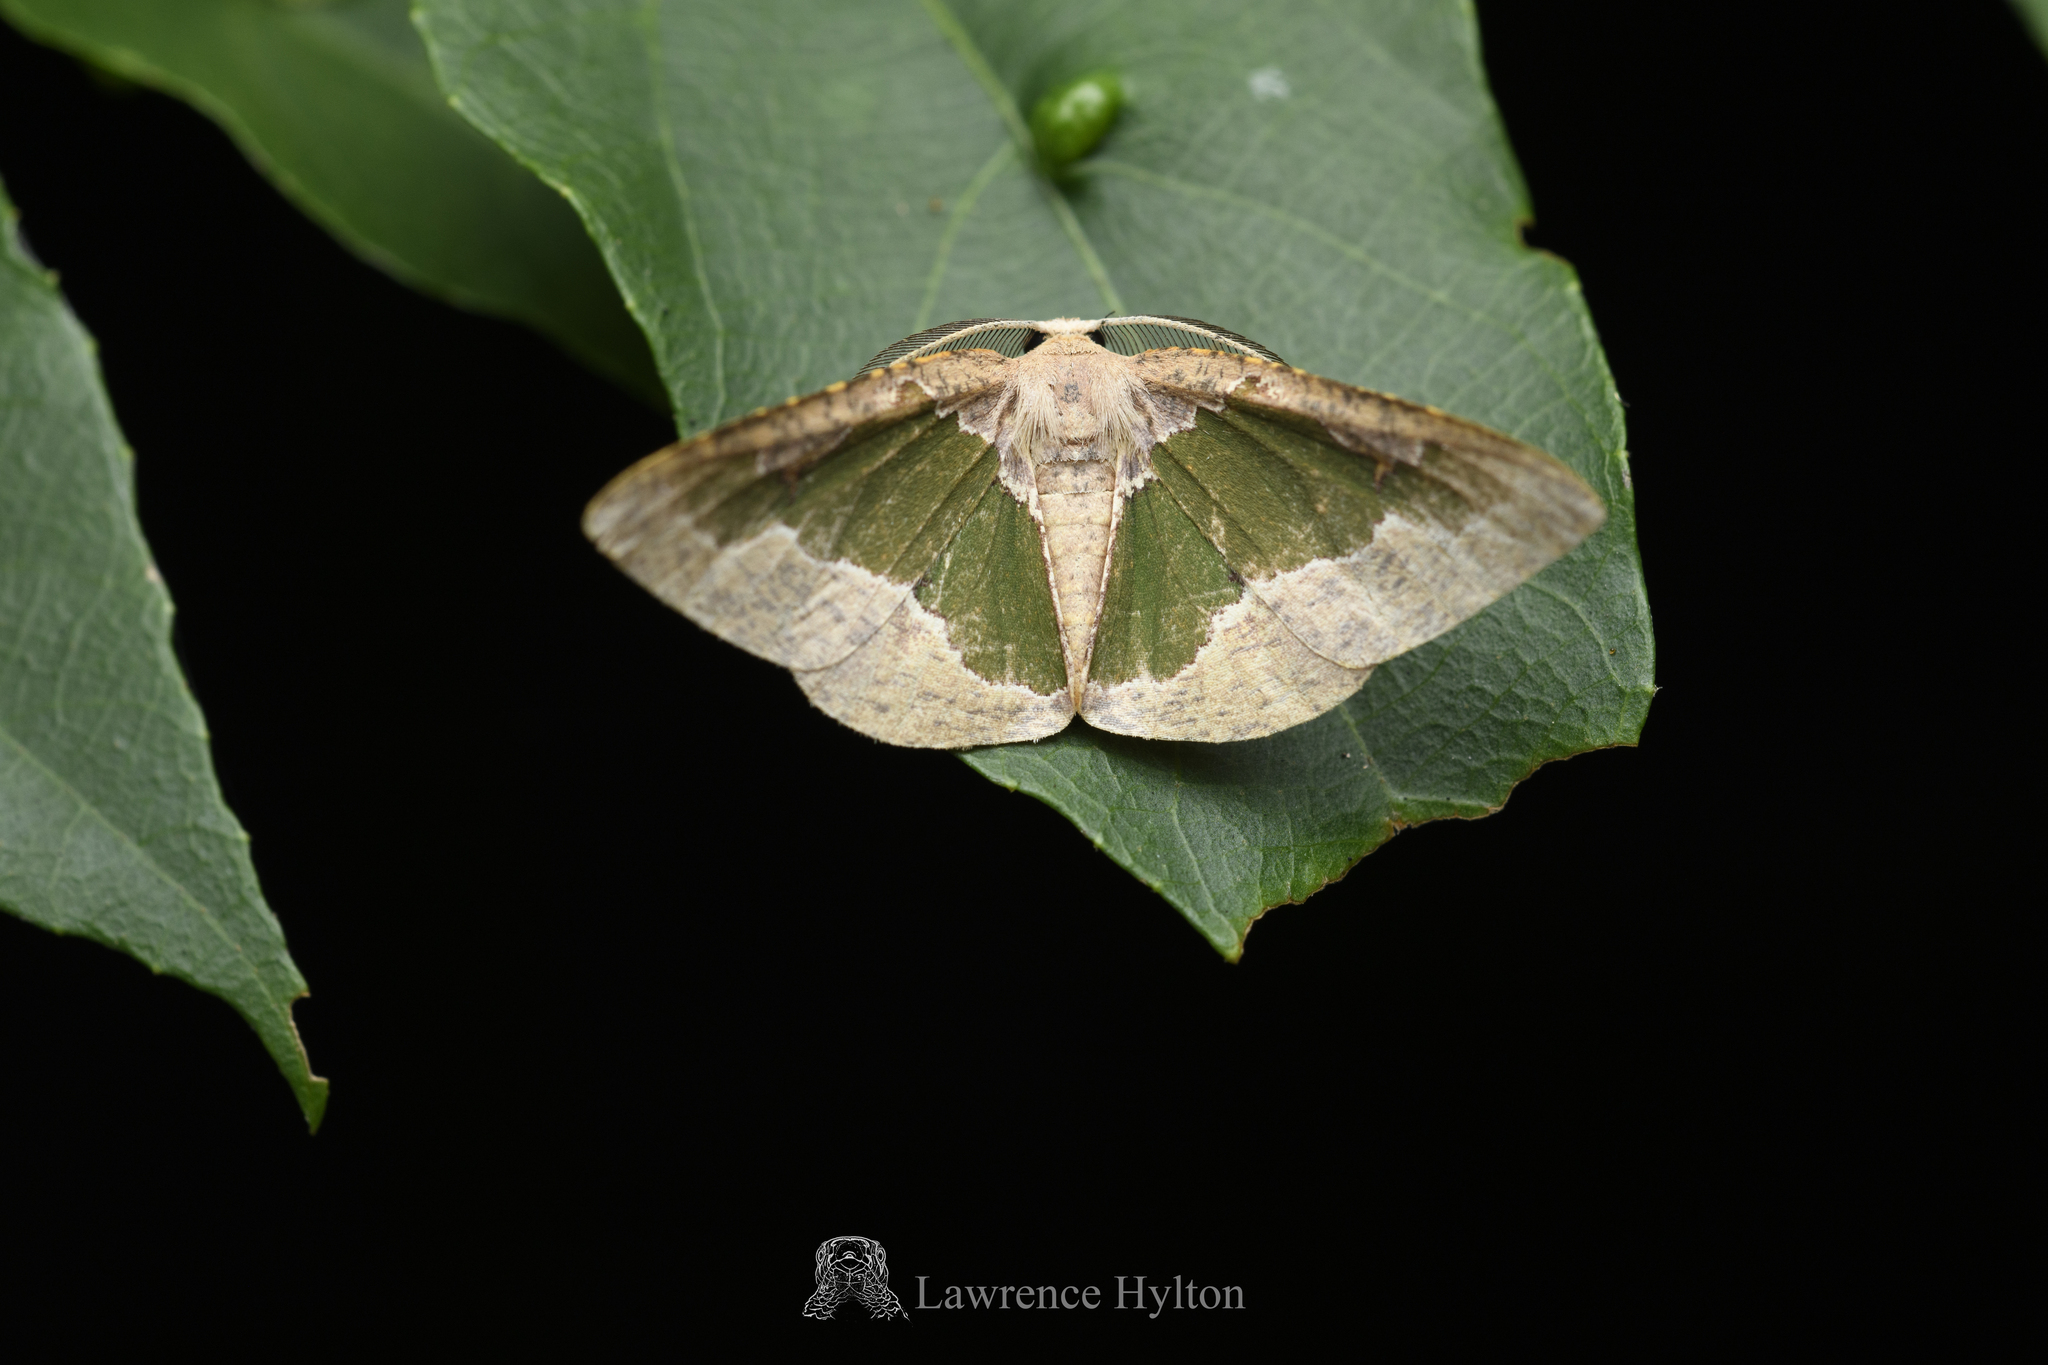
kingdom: Animalia
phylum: Arthropoda
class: Insecta
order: Lepidoptera
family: Geometridae
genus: Celenna
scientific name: Celenna festivaria
